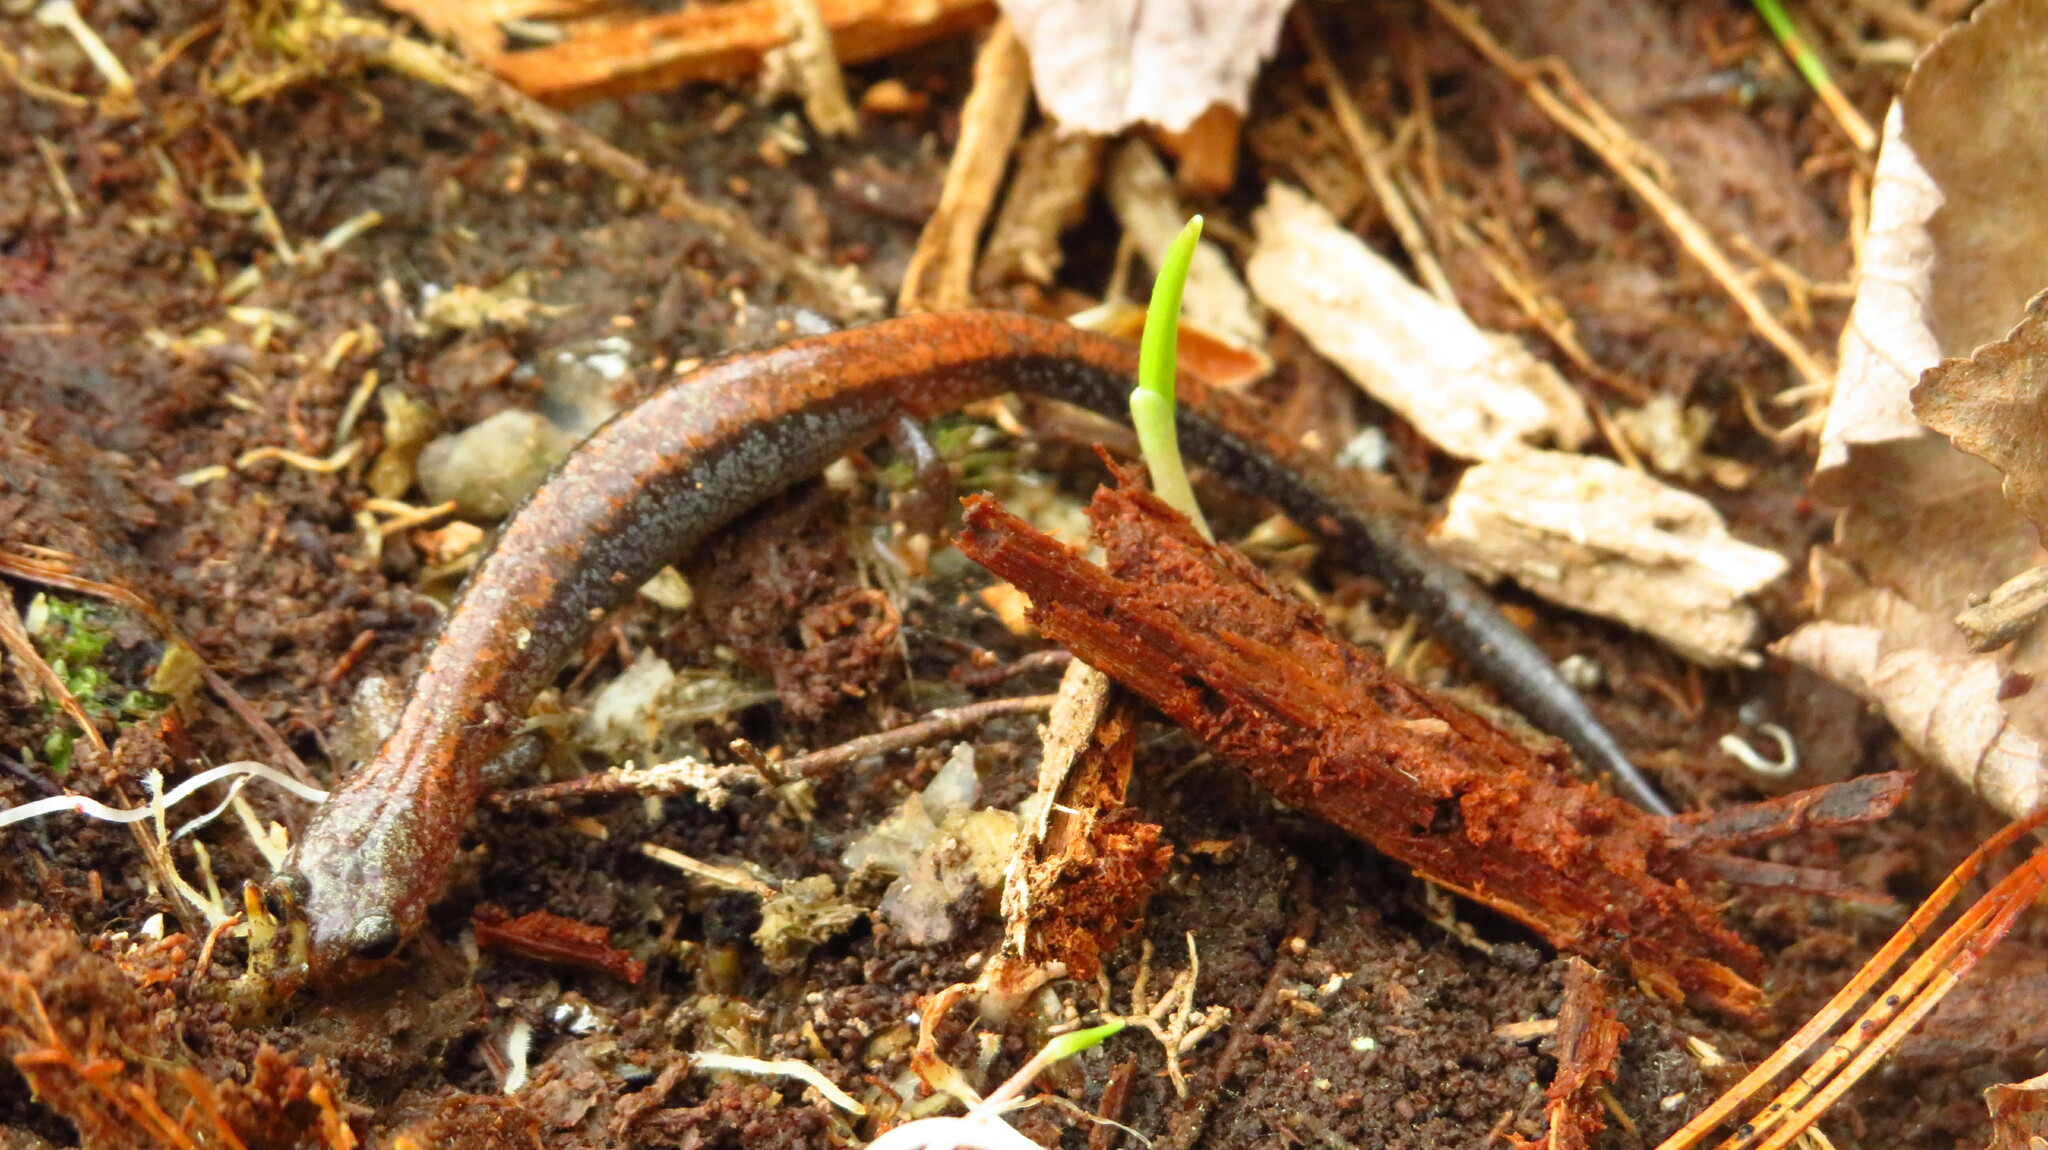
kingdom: Animalia
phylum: Chordata
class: Amphibia
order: Caudata
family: Plethodontidae
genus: Plethodon
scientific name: Plethodon cinereus
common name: Redback salamander
